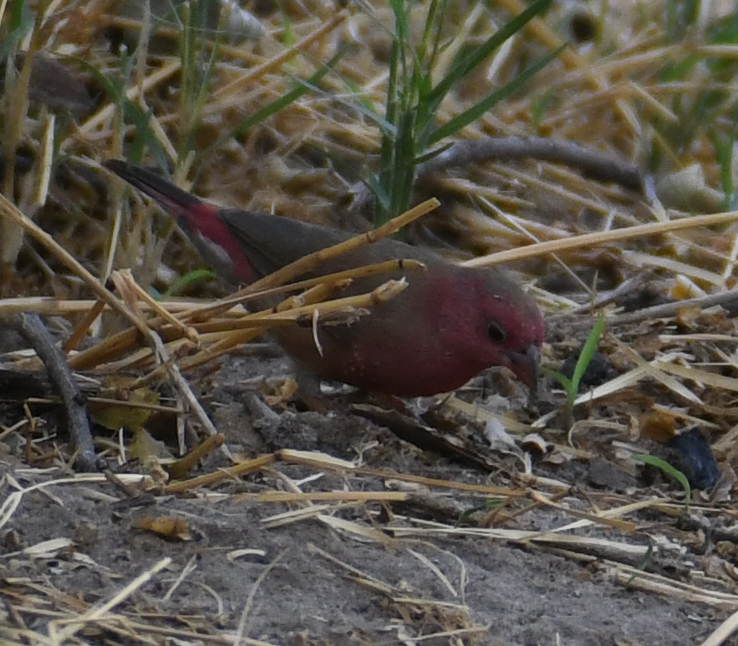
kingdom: Animalia
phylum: Chordata
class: Aves
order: Passeriformes
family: Estrildidae
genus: Lagonosticta
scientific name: Lagonosticta senegala
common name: Red-billed firefinch
